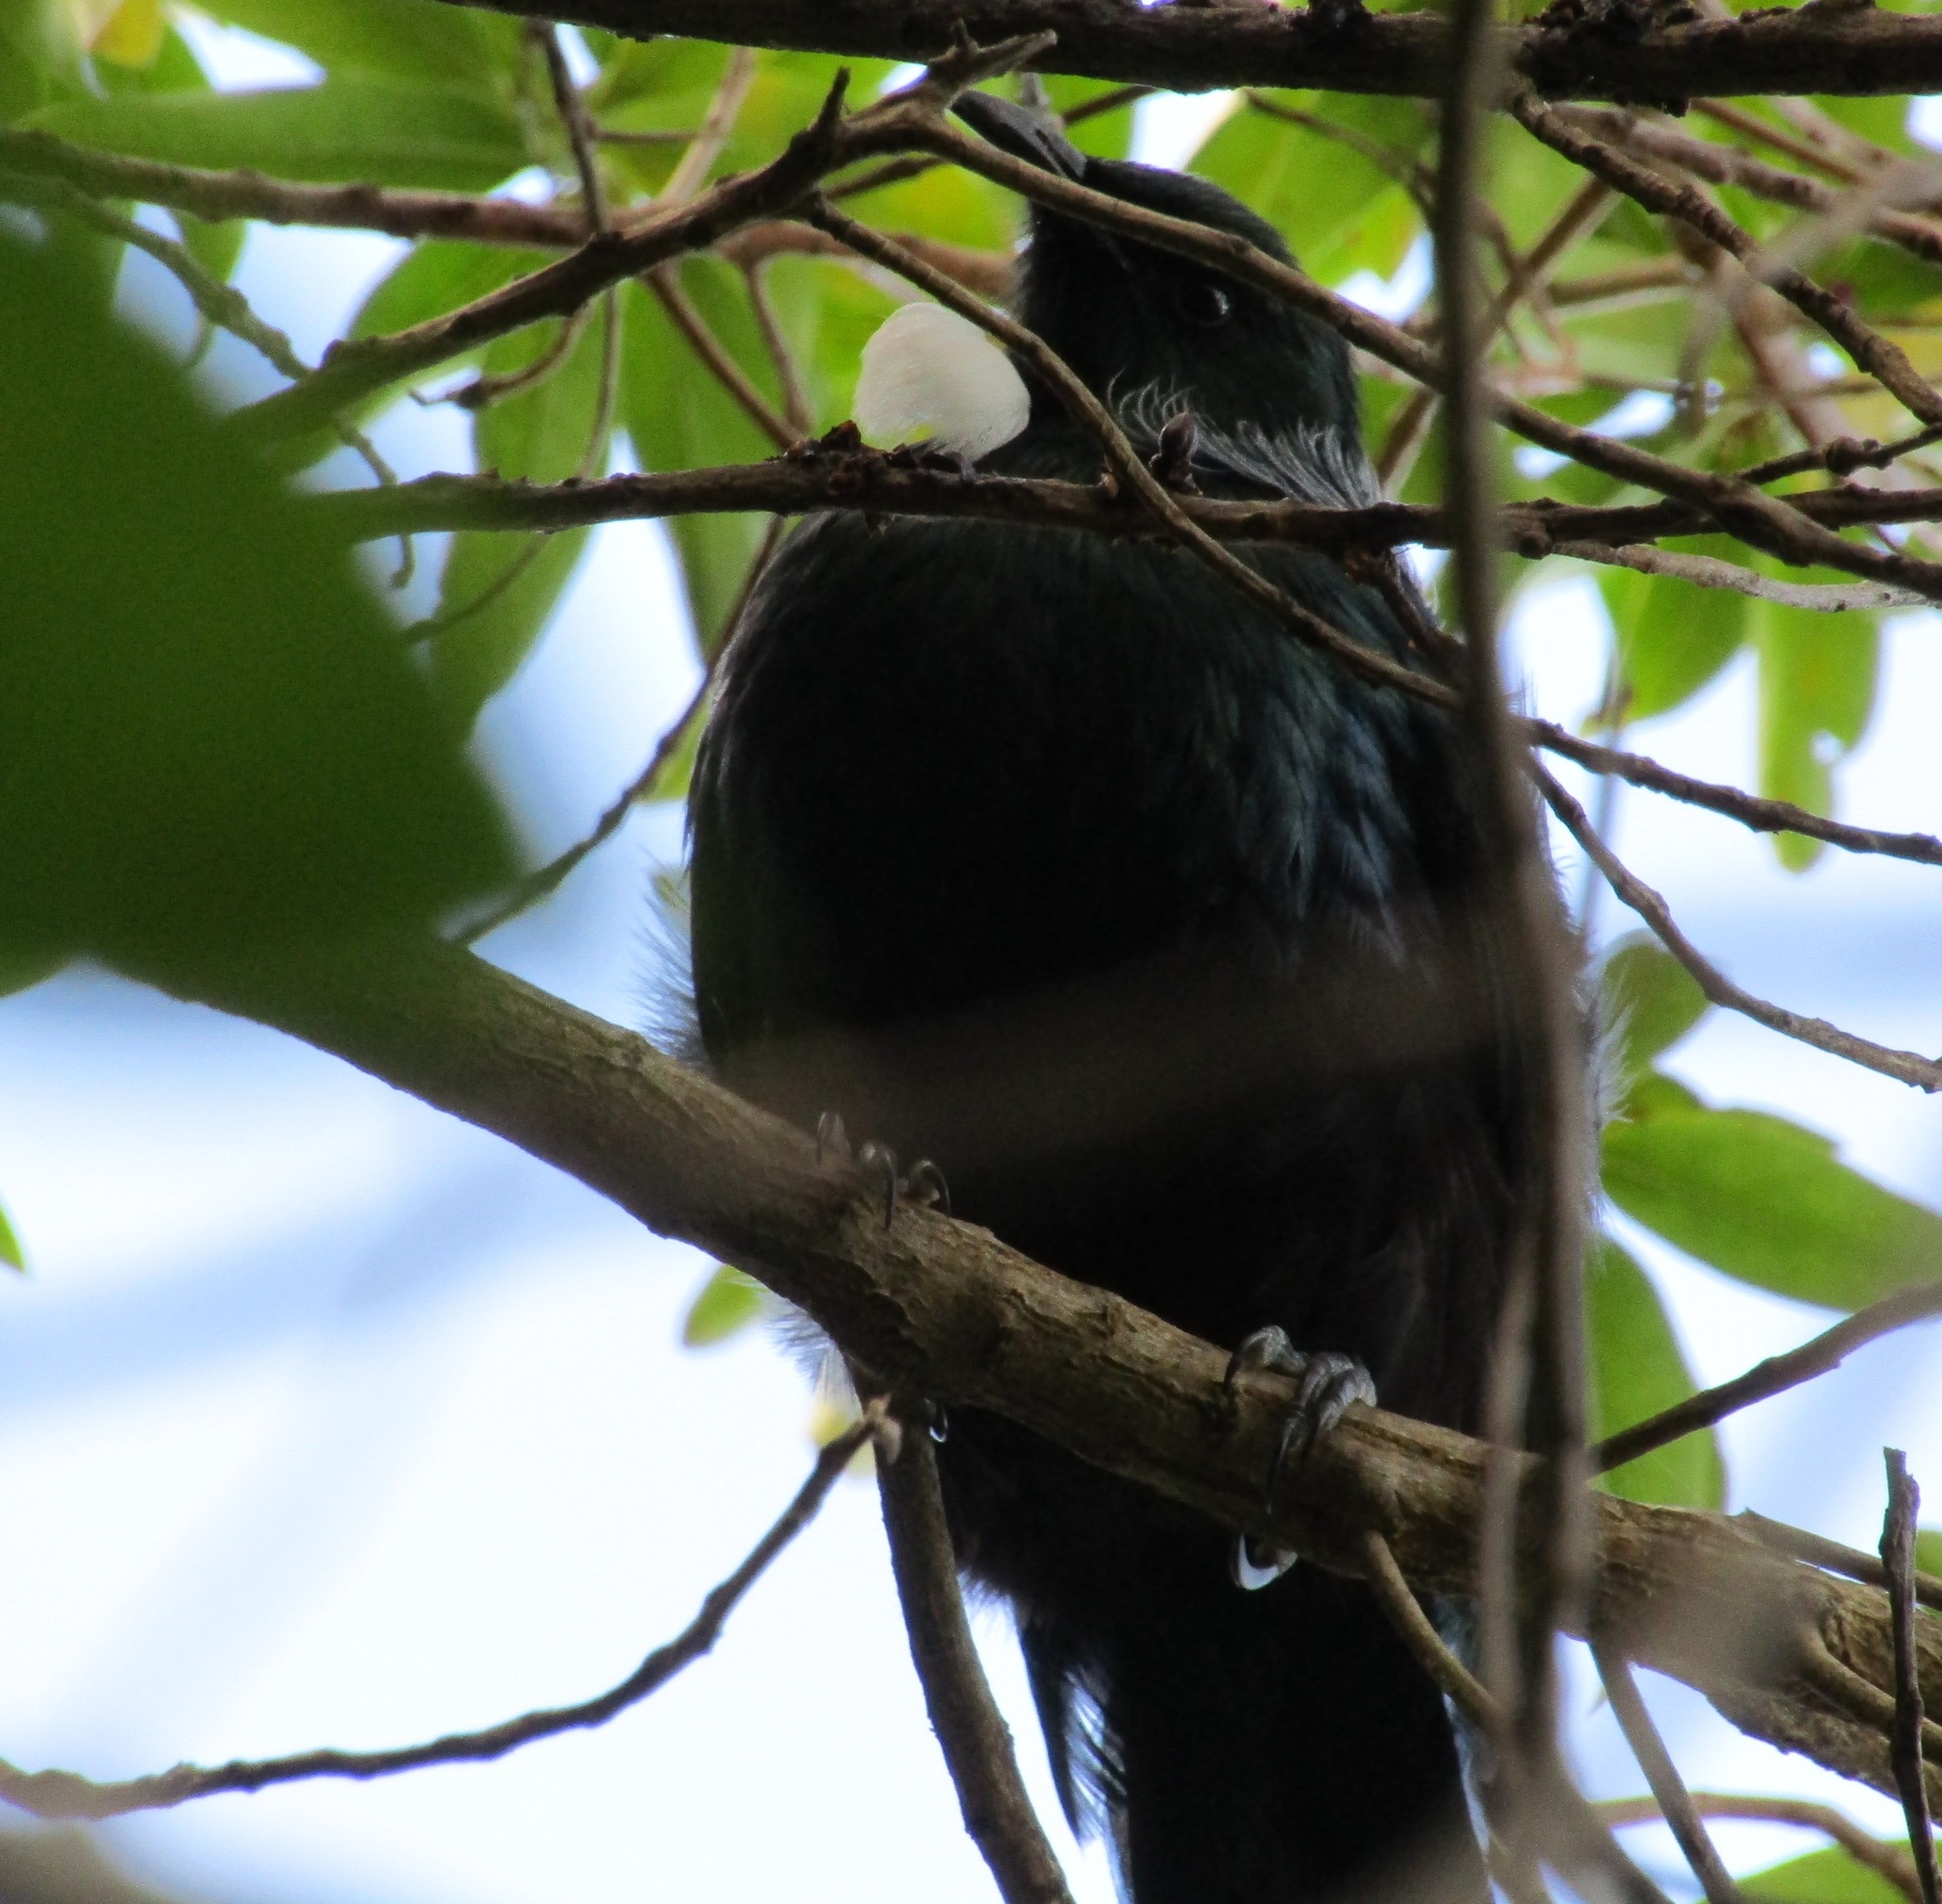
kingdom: Animalia
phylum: Chordata
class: Aves
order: Passeriformes
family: Meliphagidae
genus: Prosthemadera
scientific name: Prosthemadera novaeseelandiae
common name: Tui
